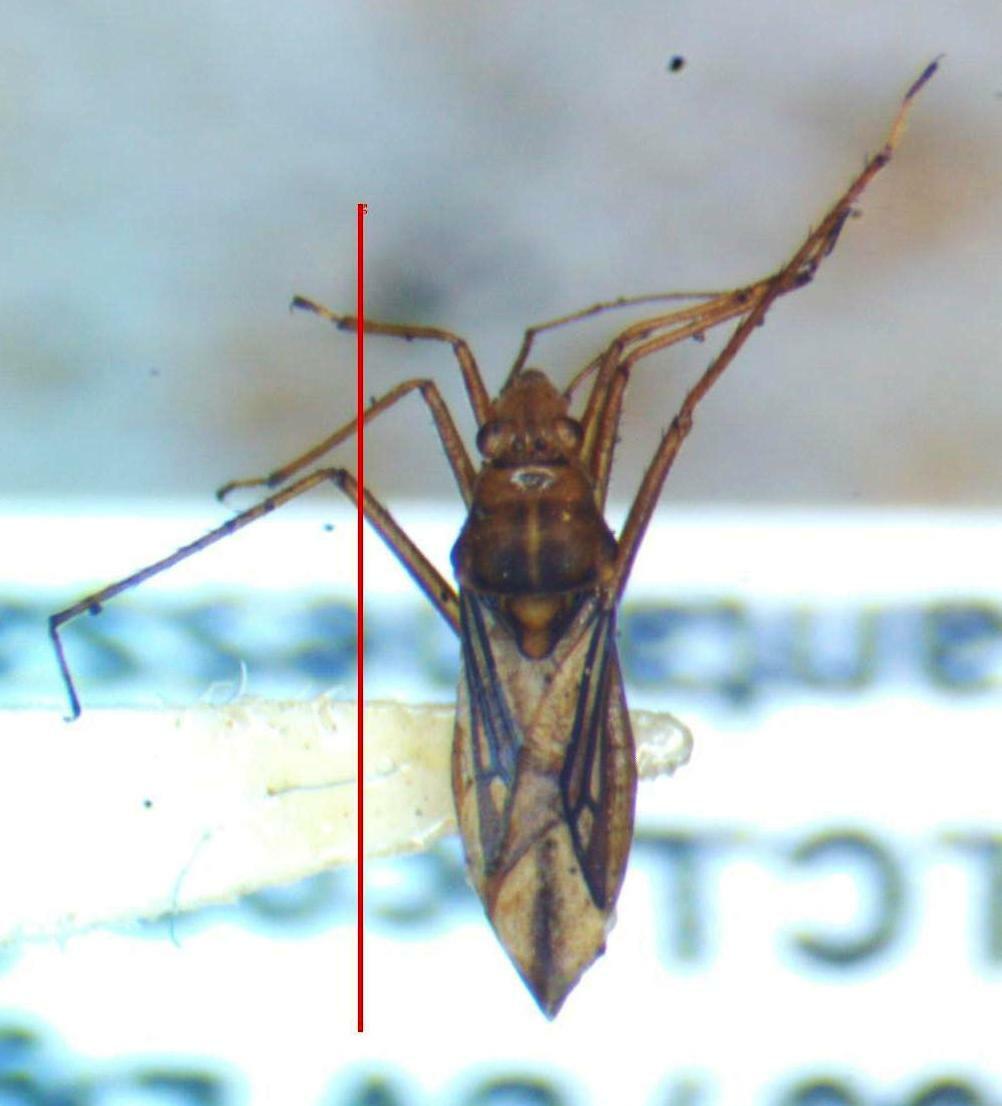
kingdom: Animalia
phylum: Arthropoda
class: Insecta
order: Hemiptera
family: Mesoveliidae
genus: Mesovelia
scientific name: Mesovelia mulsanti
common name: Water treaders
